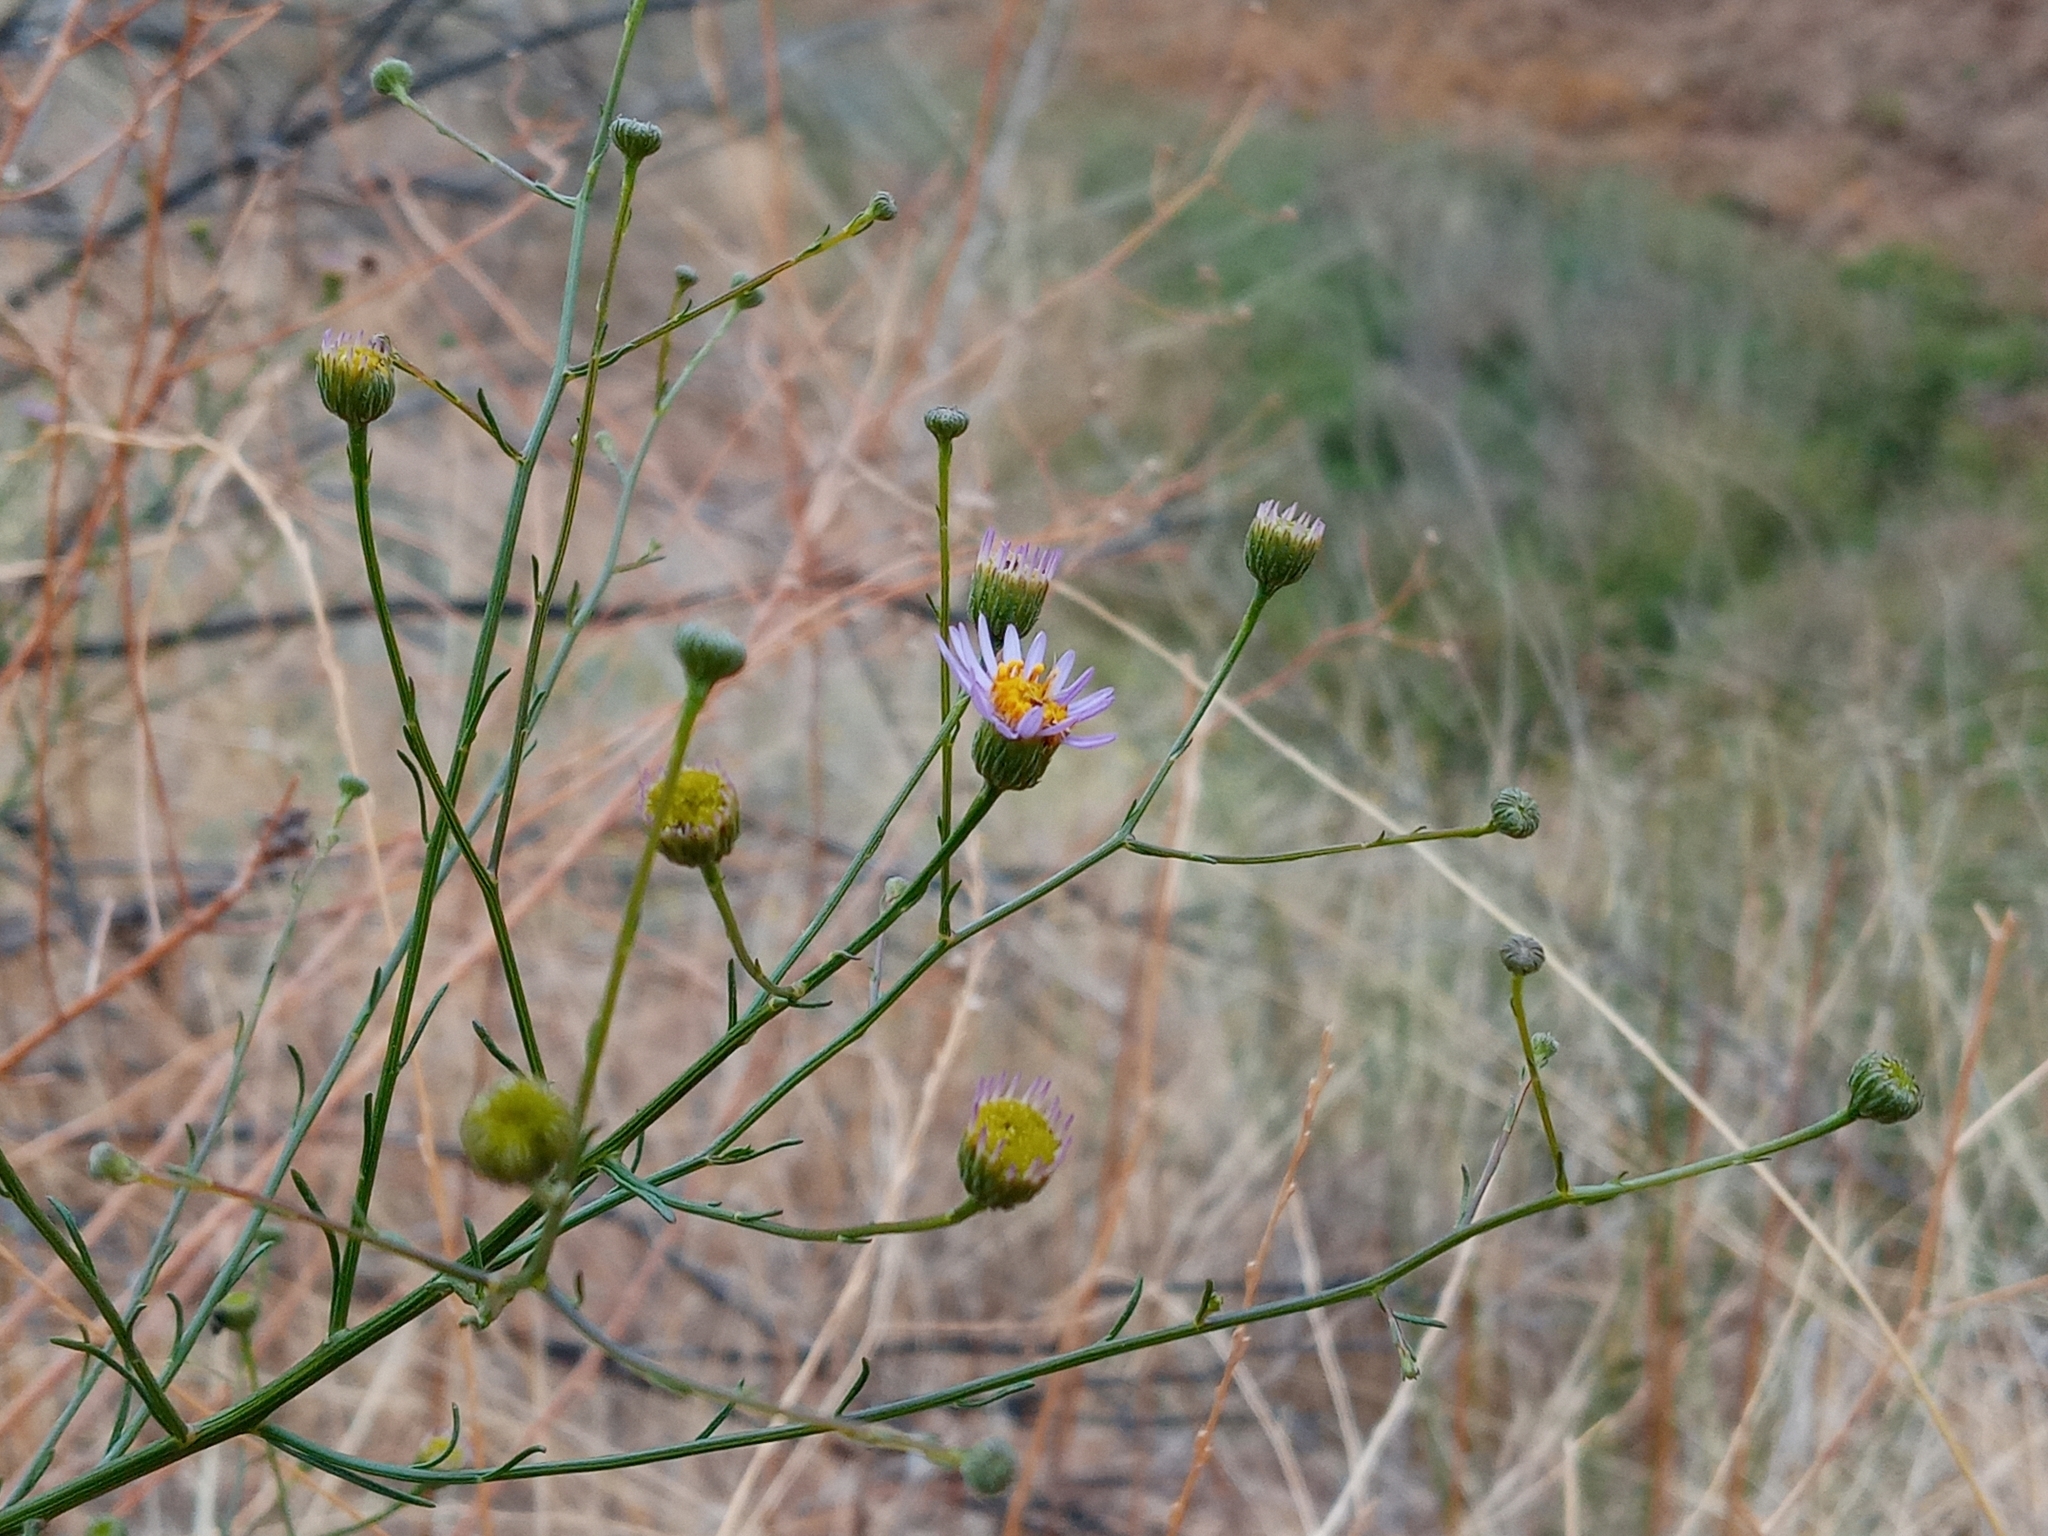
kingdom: Plantae
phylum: Tracheophyta
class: Magnoliopsida
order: Asterales
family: Asteraceae
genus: Erigeron
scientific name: Erigeron foliosus
